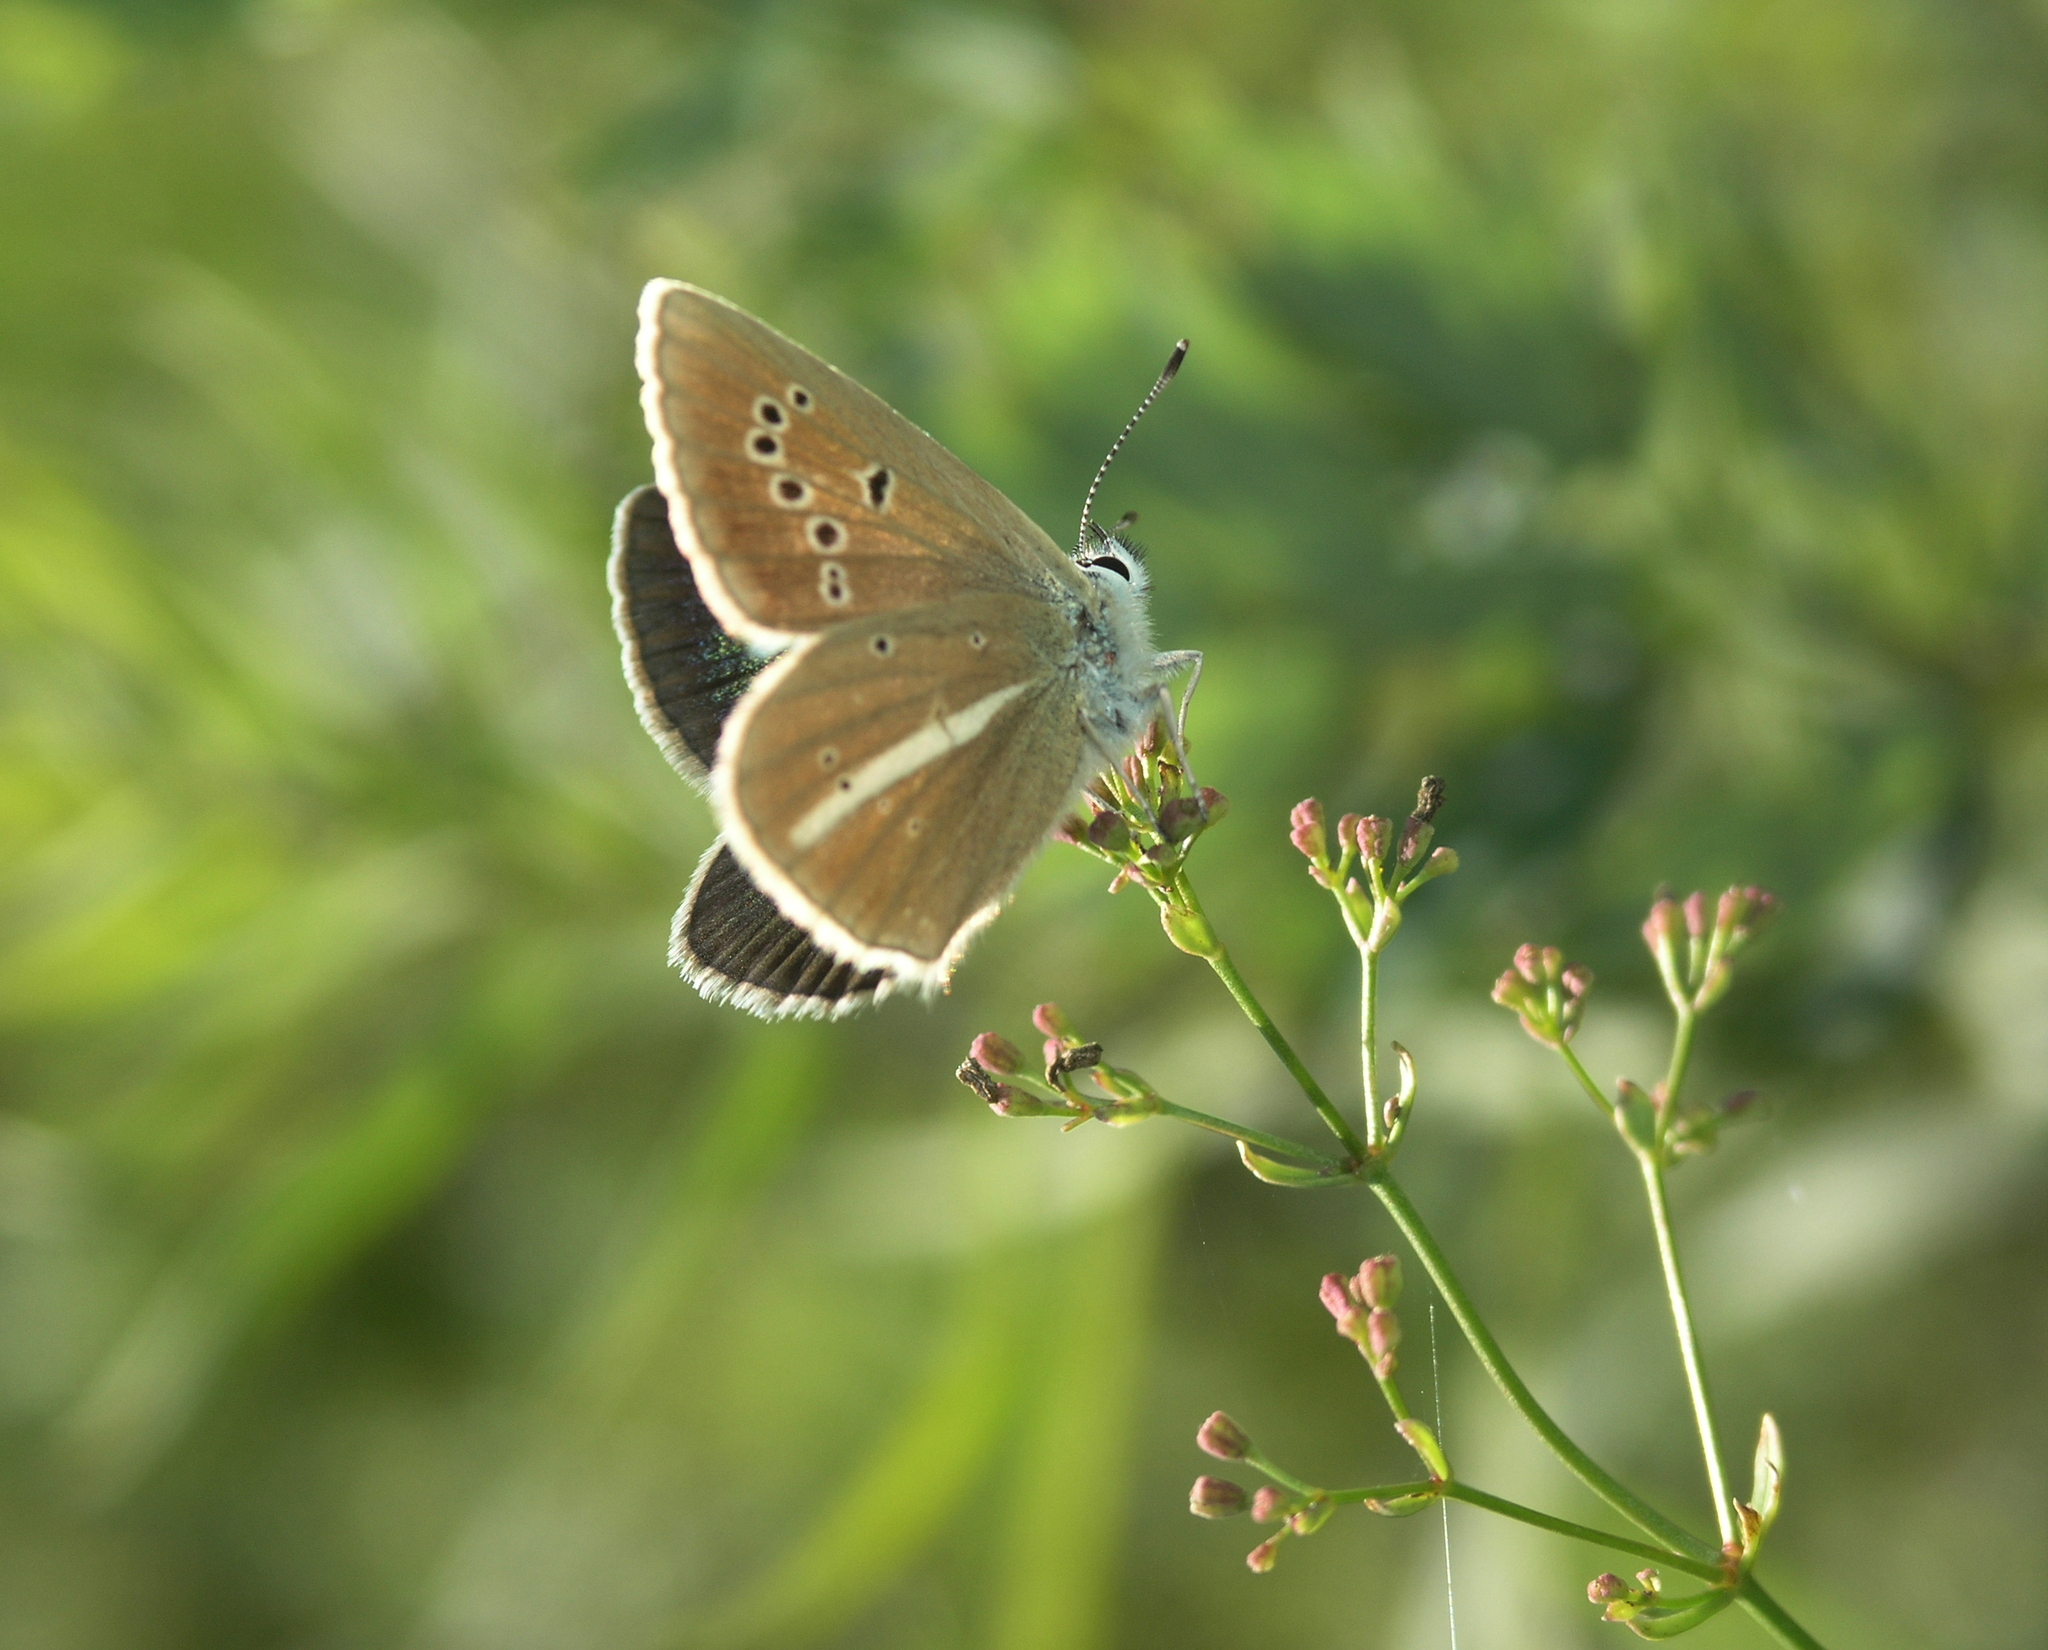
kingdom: Animalia
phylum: Arthropoda
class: Insecta
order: Lepidoptera
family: Lycaenidae
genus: Agrodiaetus
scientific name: Agrodiaetus damon
